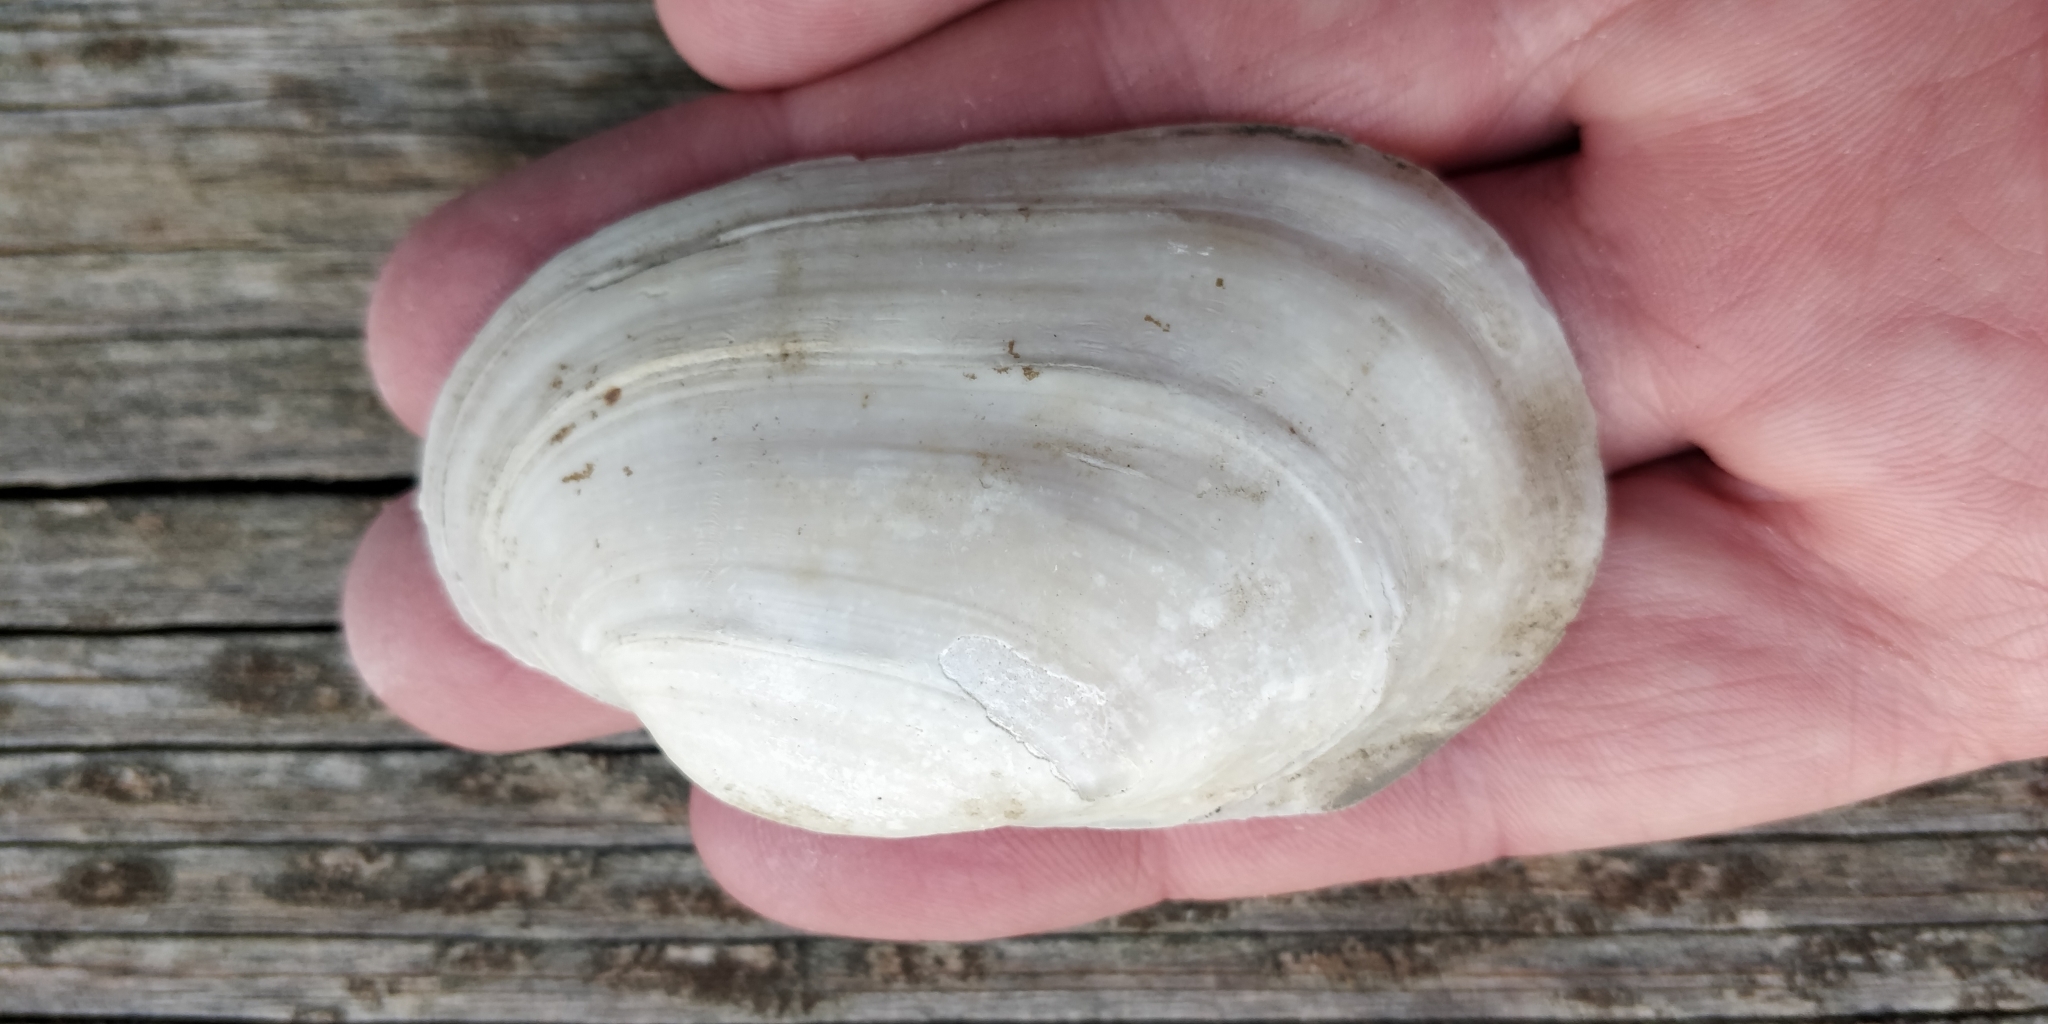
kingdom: Animalia
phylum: Mollusca
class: Bivalvia
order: Unionida
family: Unionidae
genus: Lampsilis
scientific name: Lampsilis siliquoidea
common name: Fatmucket
